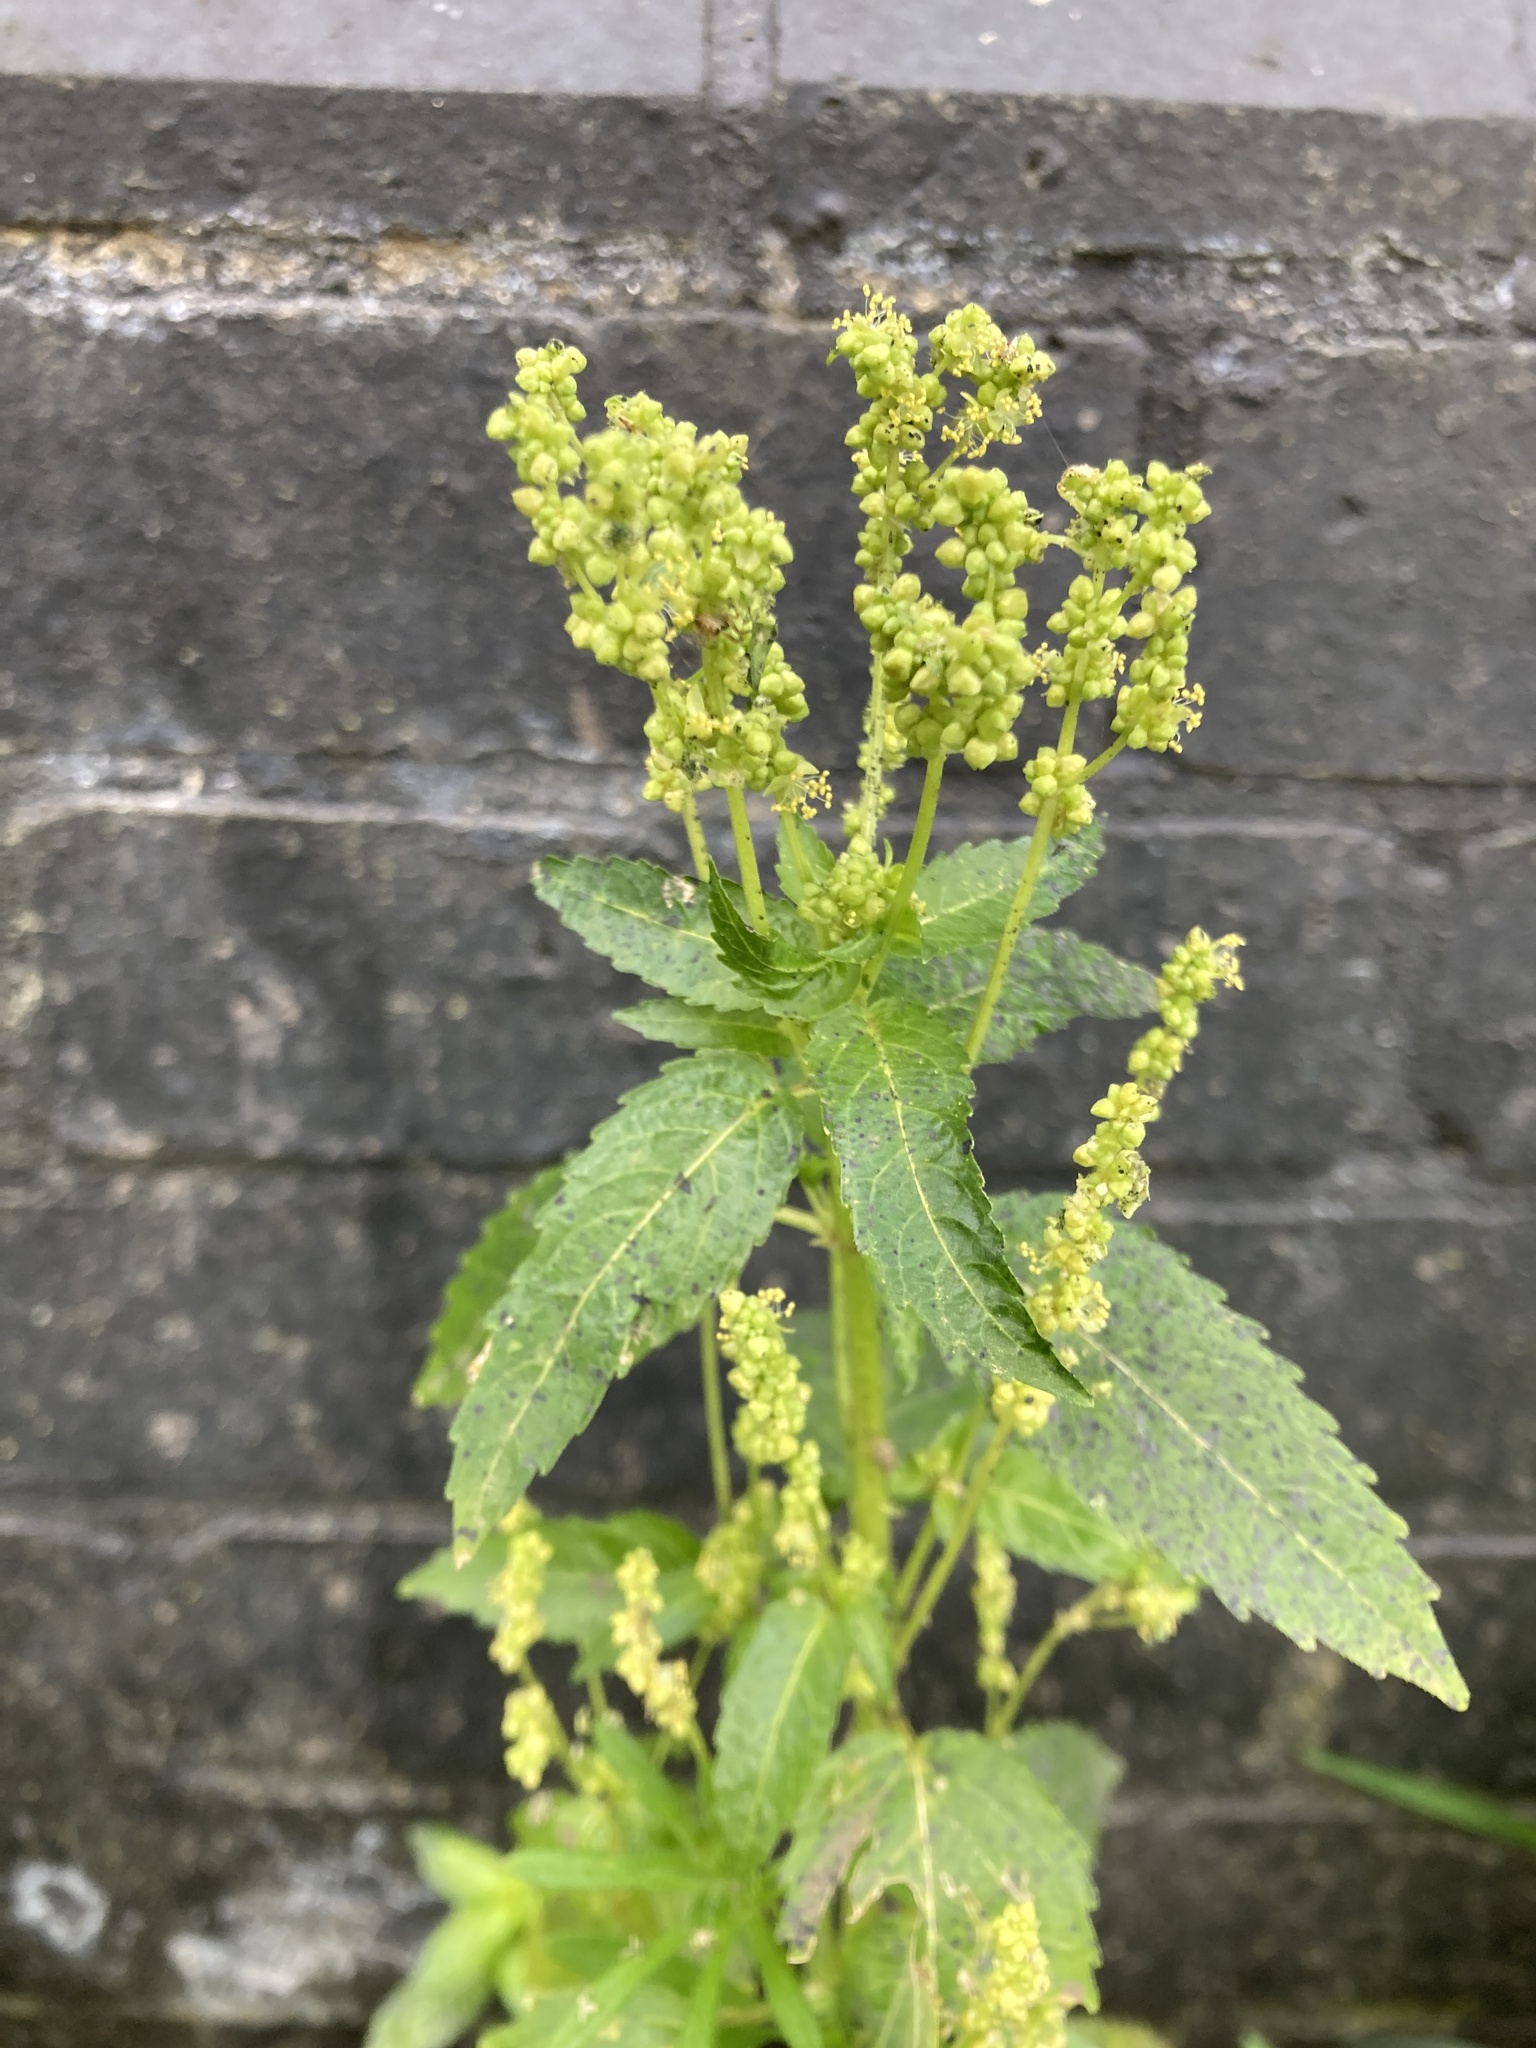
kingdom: Plantae
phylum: Tracheophyta
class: Magnoliopsida
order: Malpighiales
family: Euphorbiaceae
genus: Mercurialis
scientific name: Mercurialis annua
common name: Annual mercury
